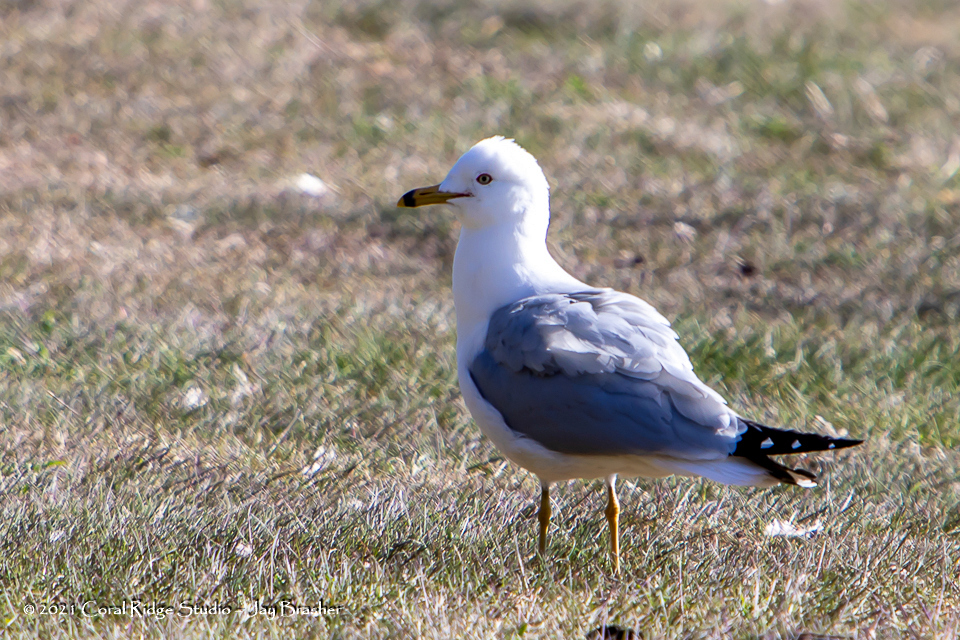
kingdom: Animalia
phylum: Chordata
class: Aves
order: Charadriiformes
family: Laridae
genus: Larus
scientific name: Larus delawarensis
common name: Ring-billed gull
